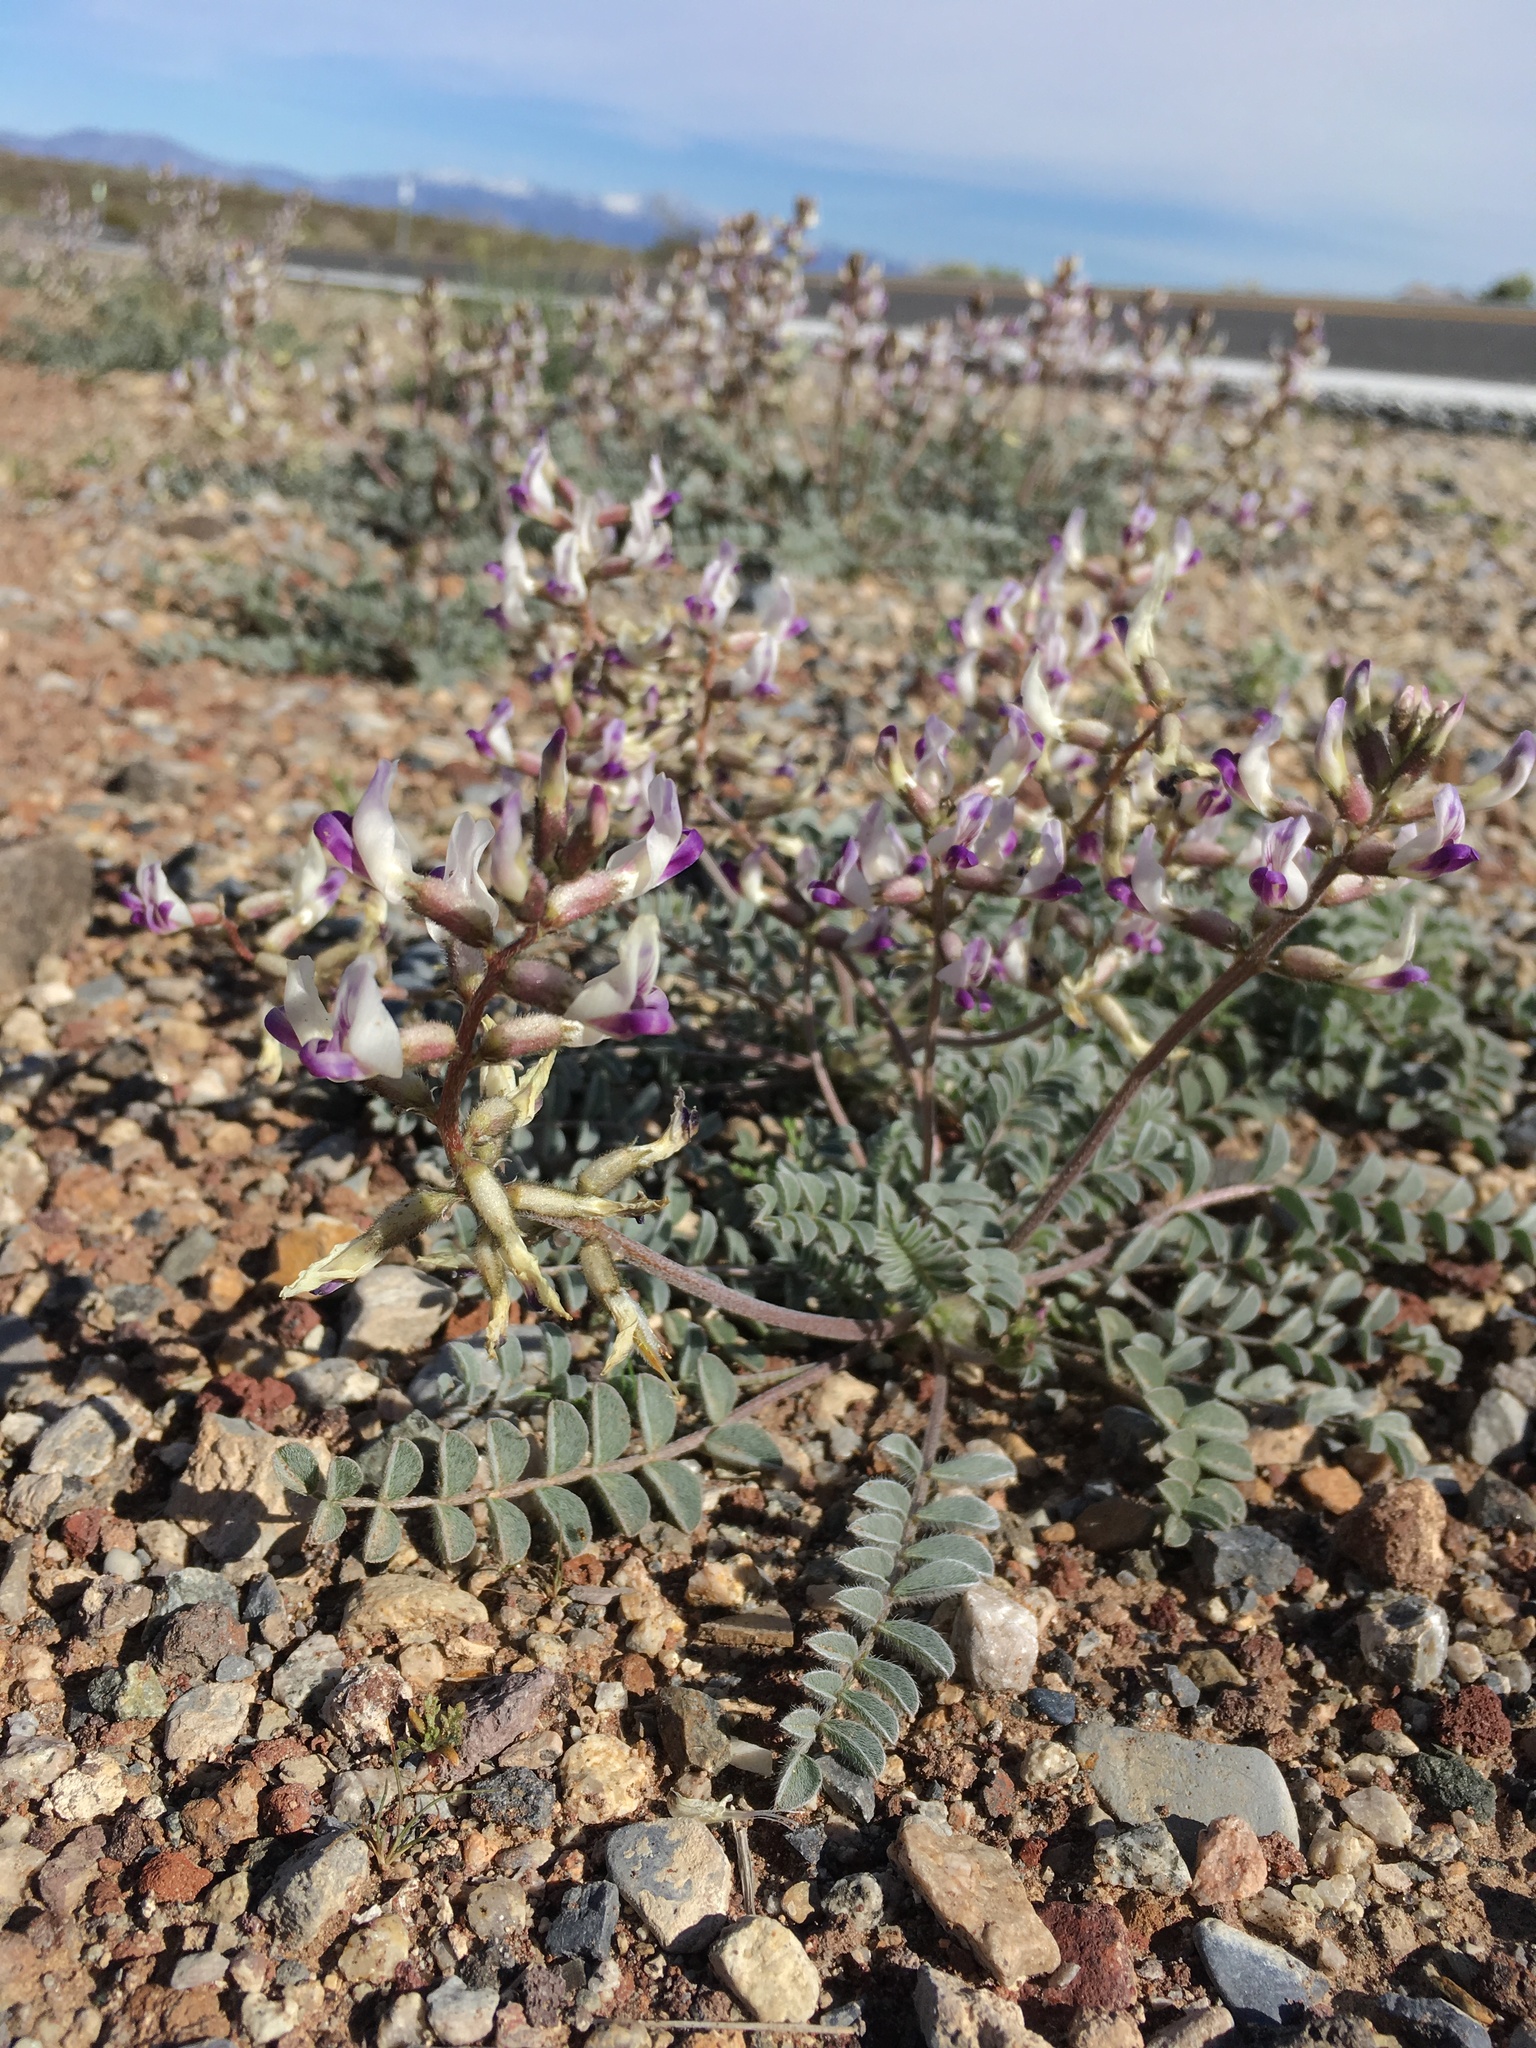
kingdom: Plantae
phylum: Tracheophyta
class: Magnoliopsida
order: Fabales
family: Fabaceae
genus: Astragalus
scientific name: Astragalus layneae
